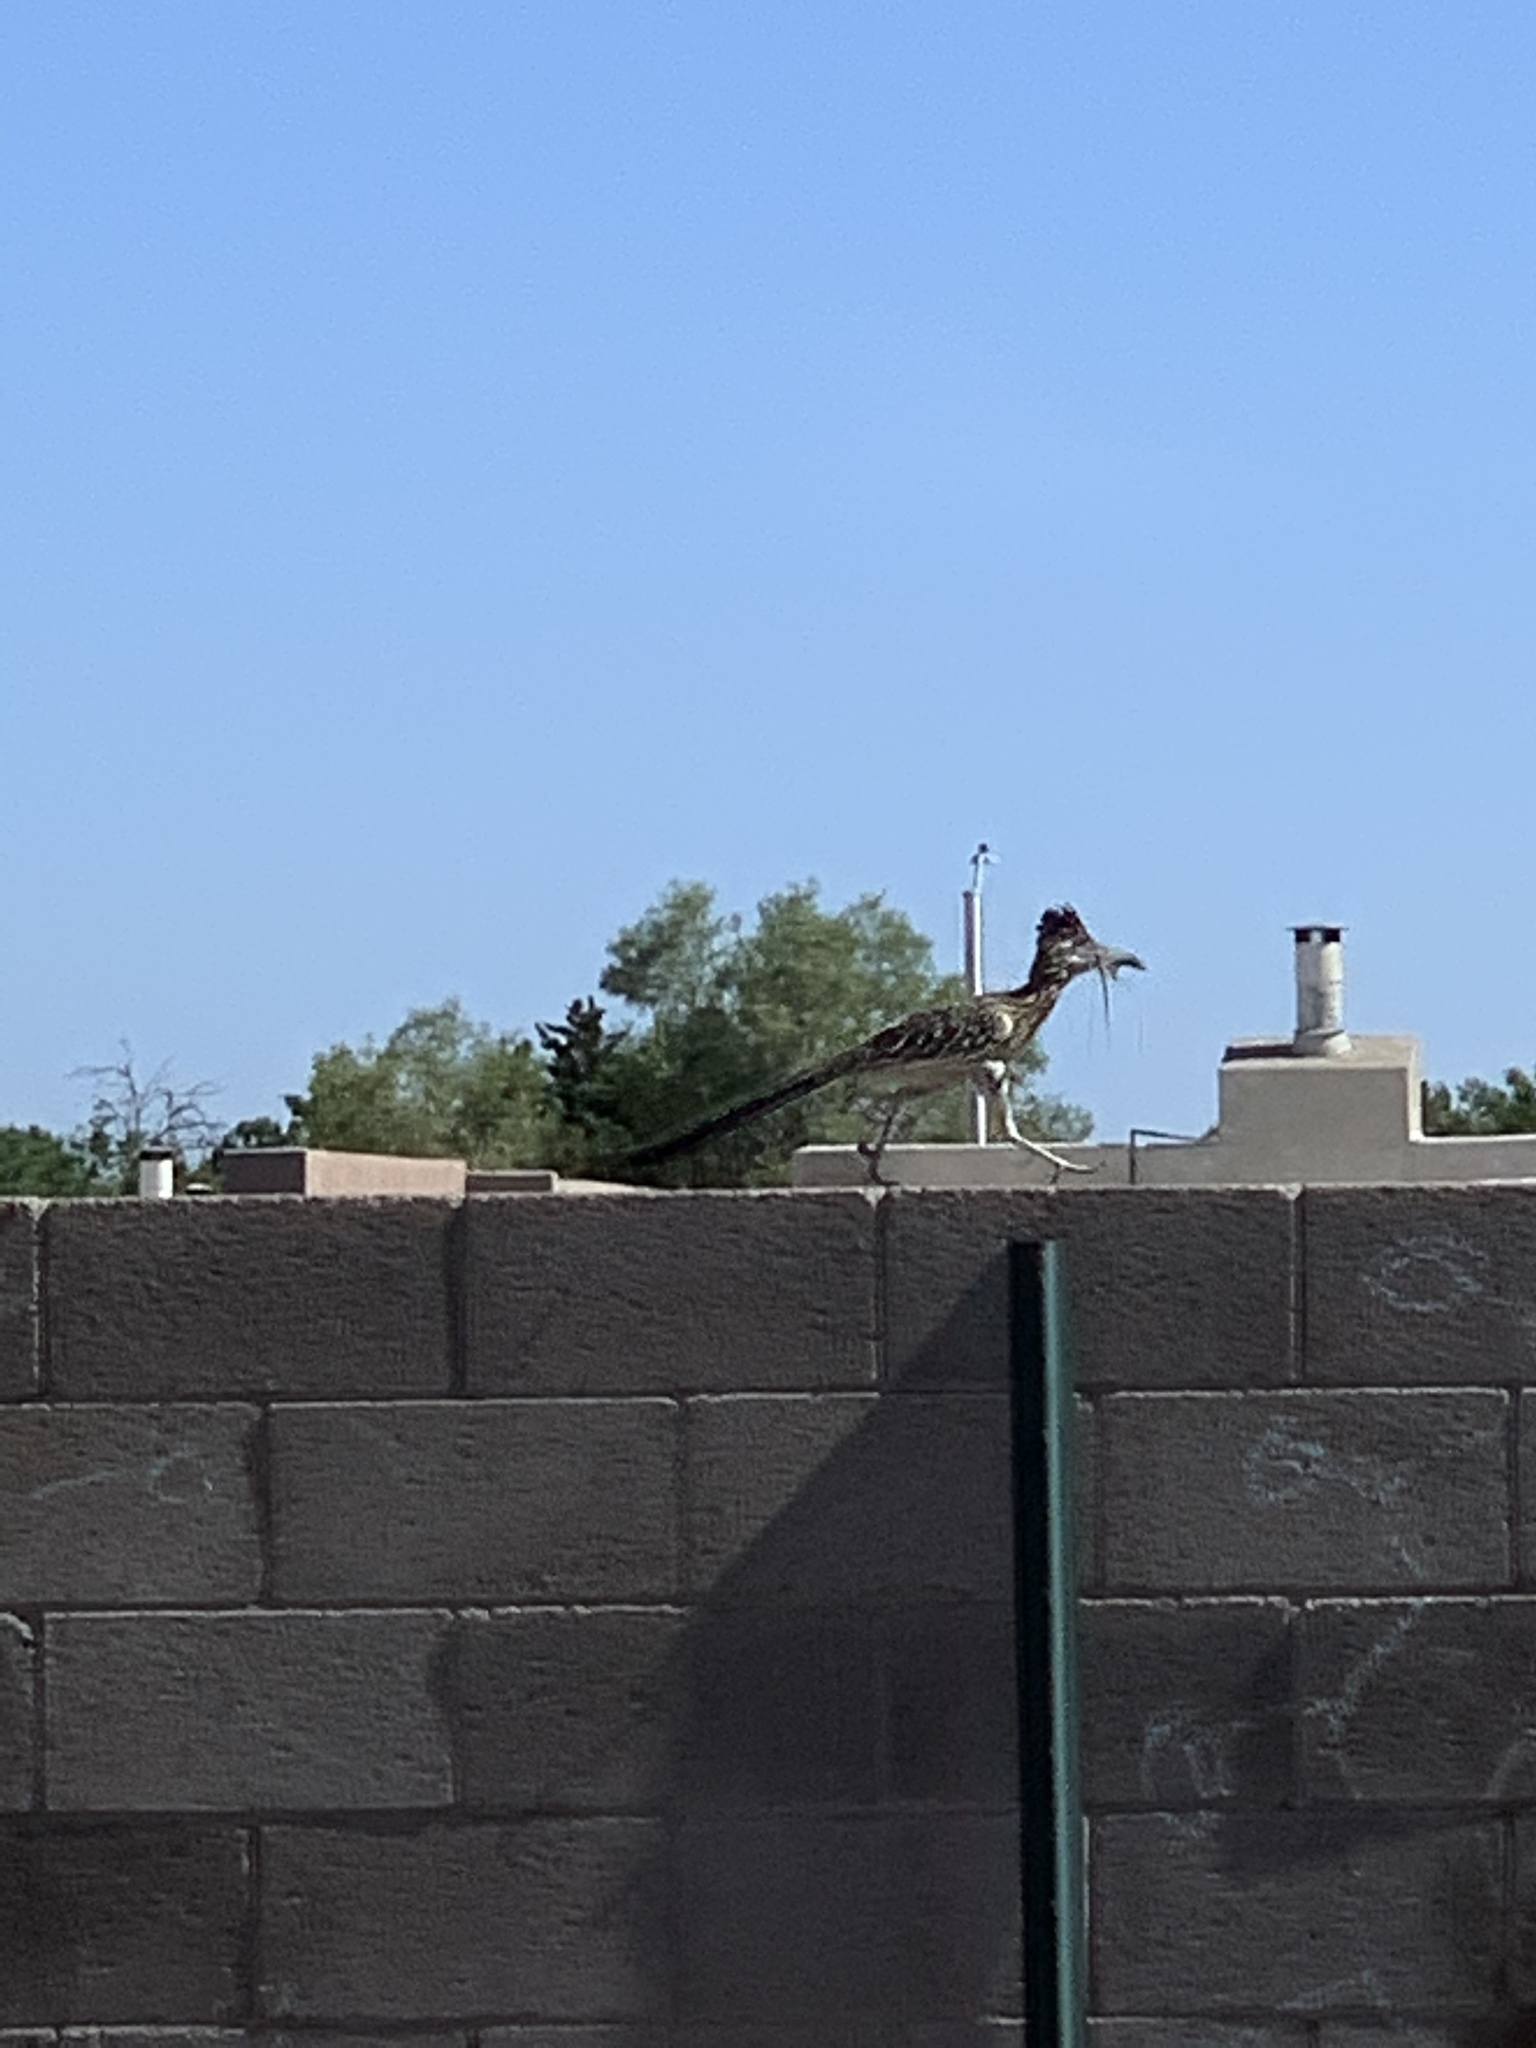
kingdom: Animalia
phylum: Chordata
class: Aves
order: Cuculiformes
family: Cuculidae
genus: Geococcyx
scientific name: Geococcyx californianus
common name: Greater roadrunner
